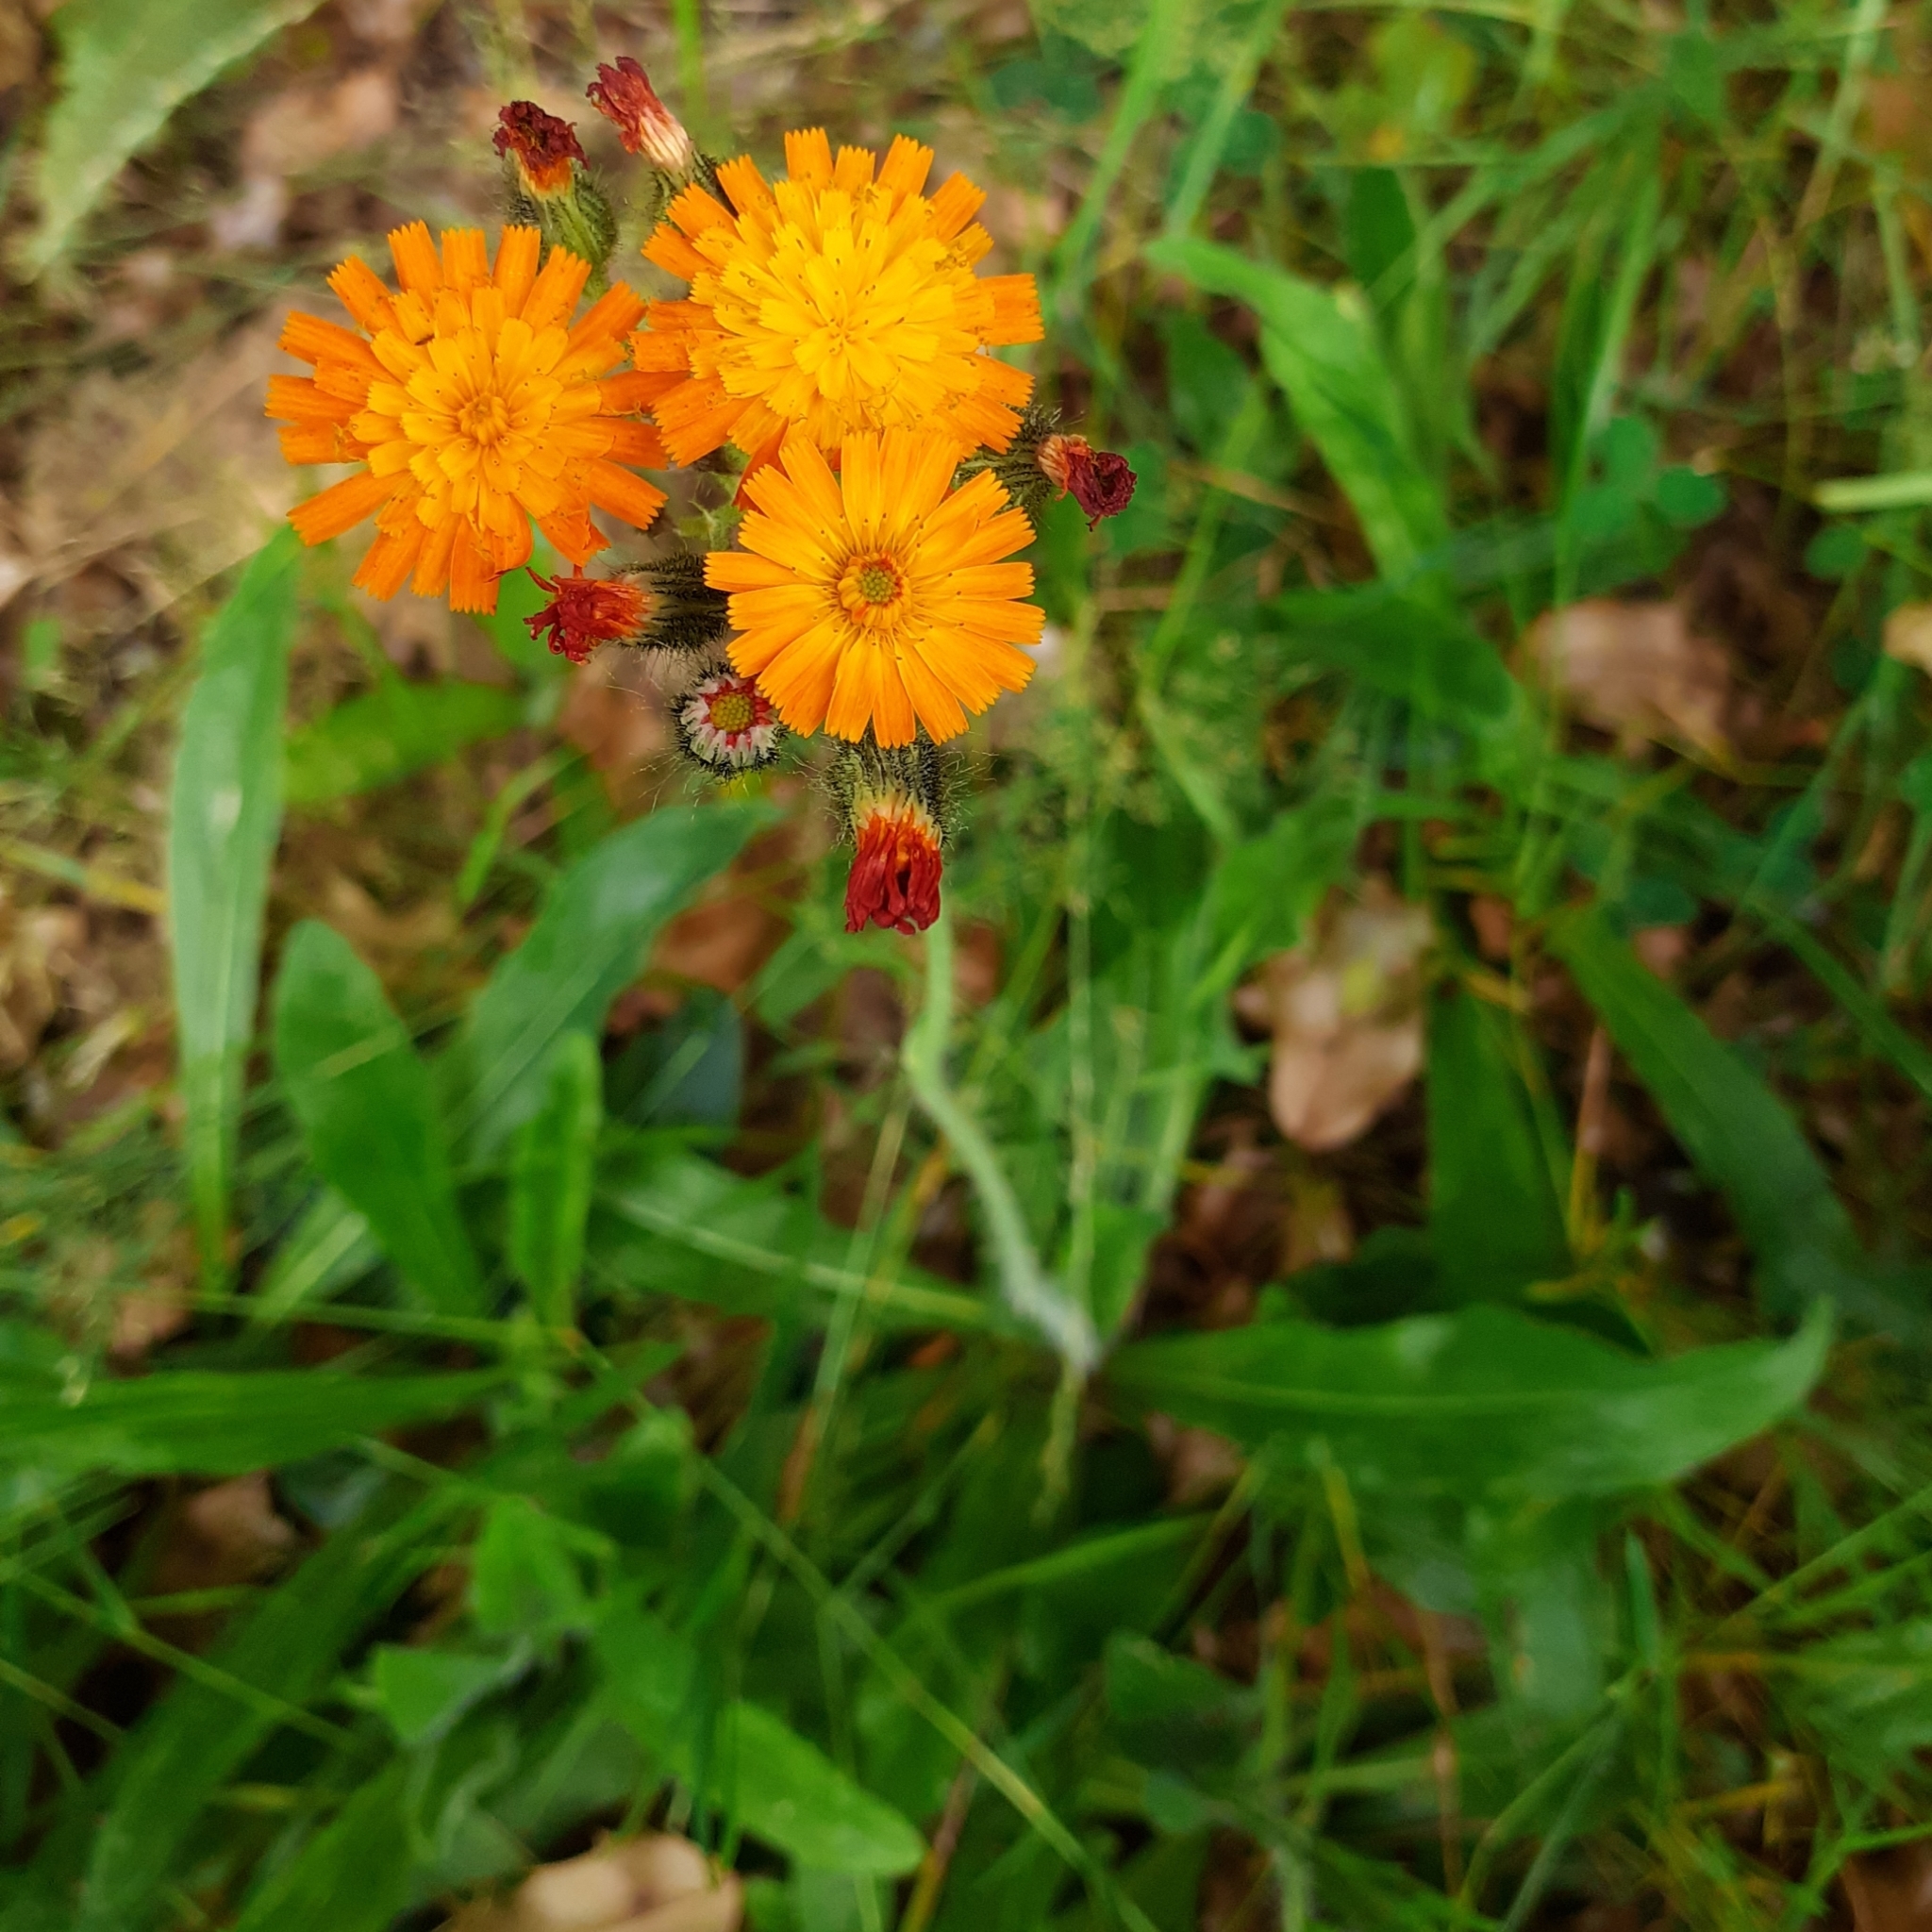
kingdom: Plantae
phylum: Tracheophyta
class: Magnoliopsida
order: Asterales
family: Asteraceae
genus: Pilosella
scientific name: Pilosella aurantiaca
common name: Fox-and-cubs
